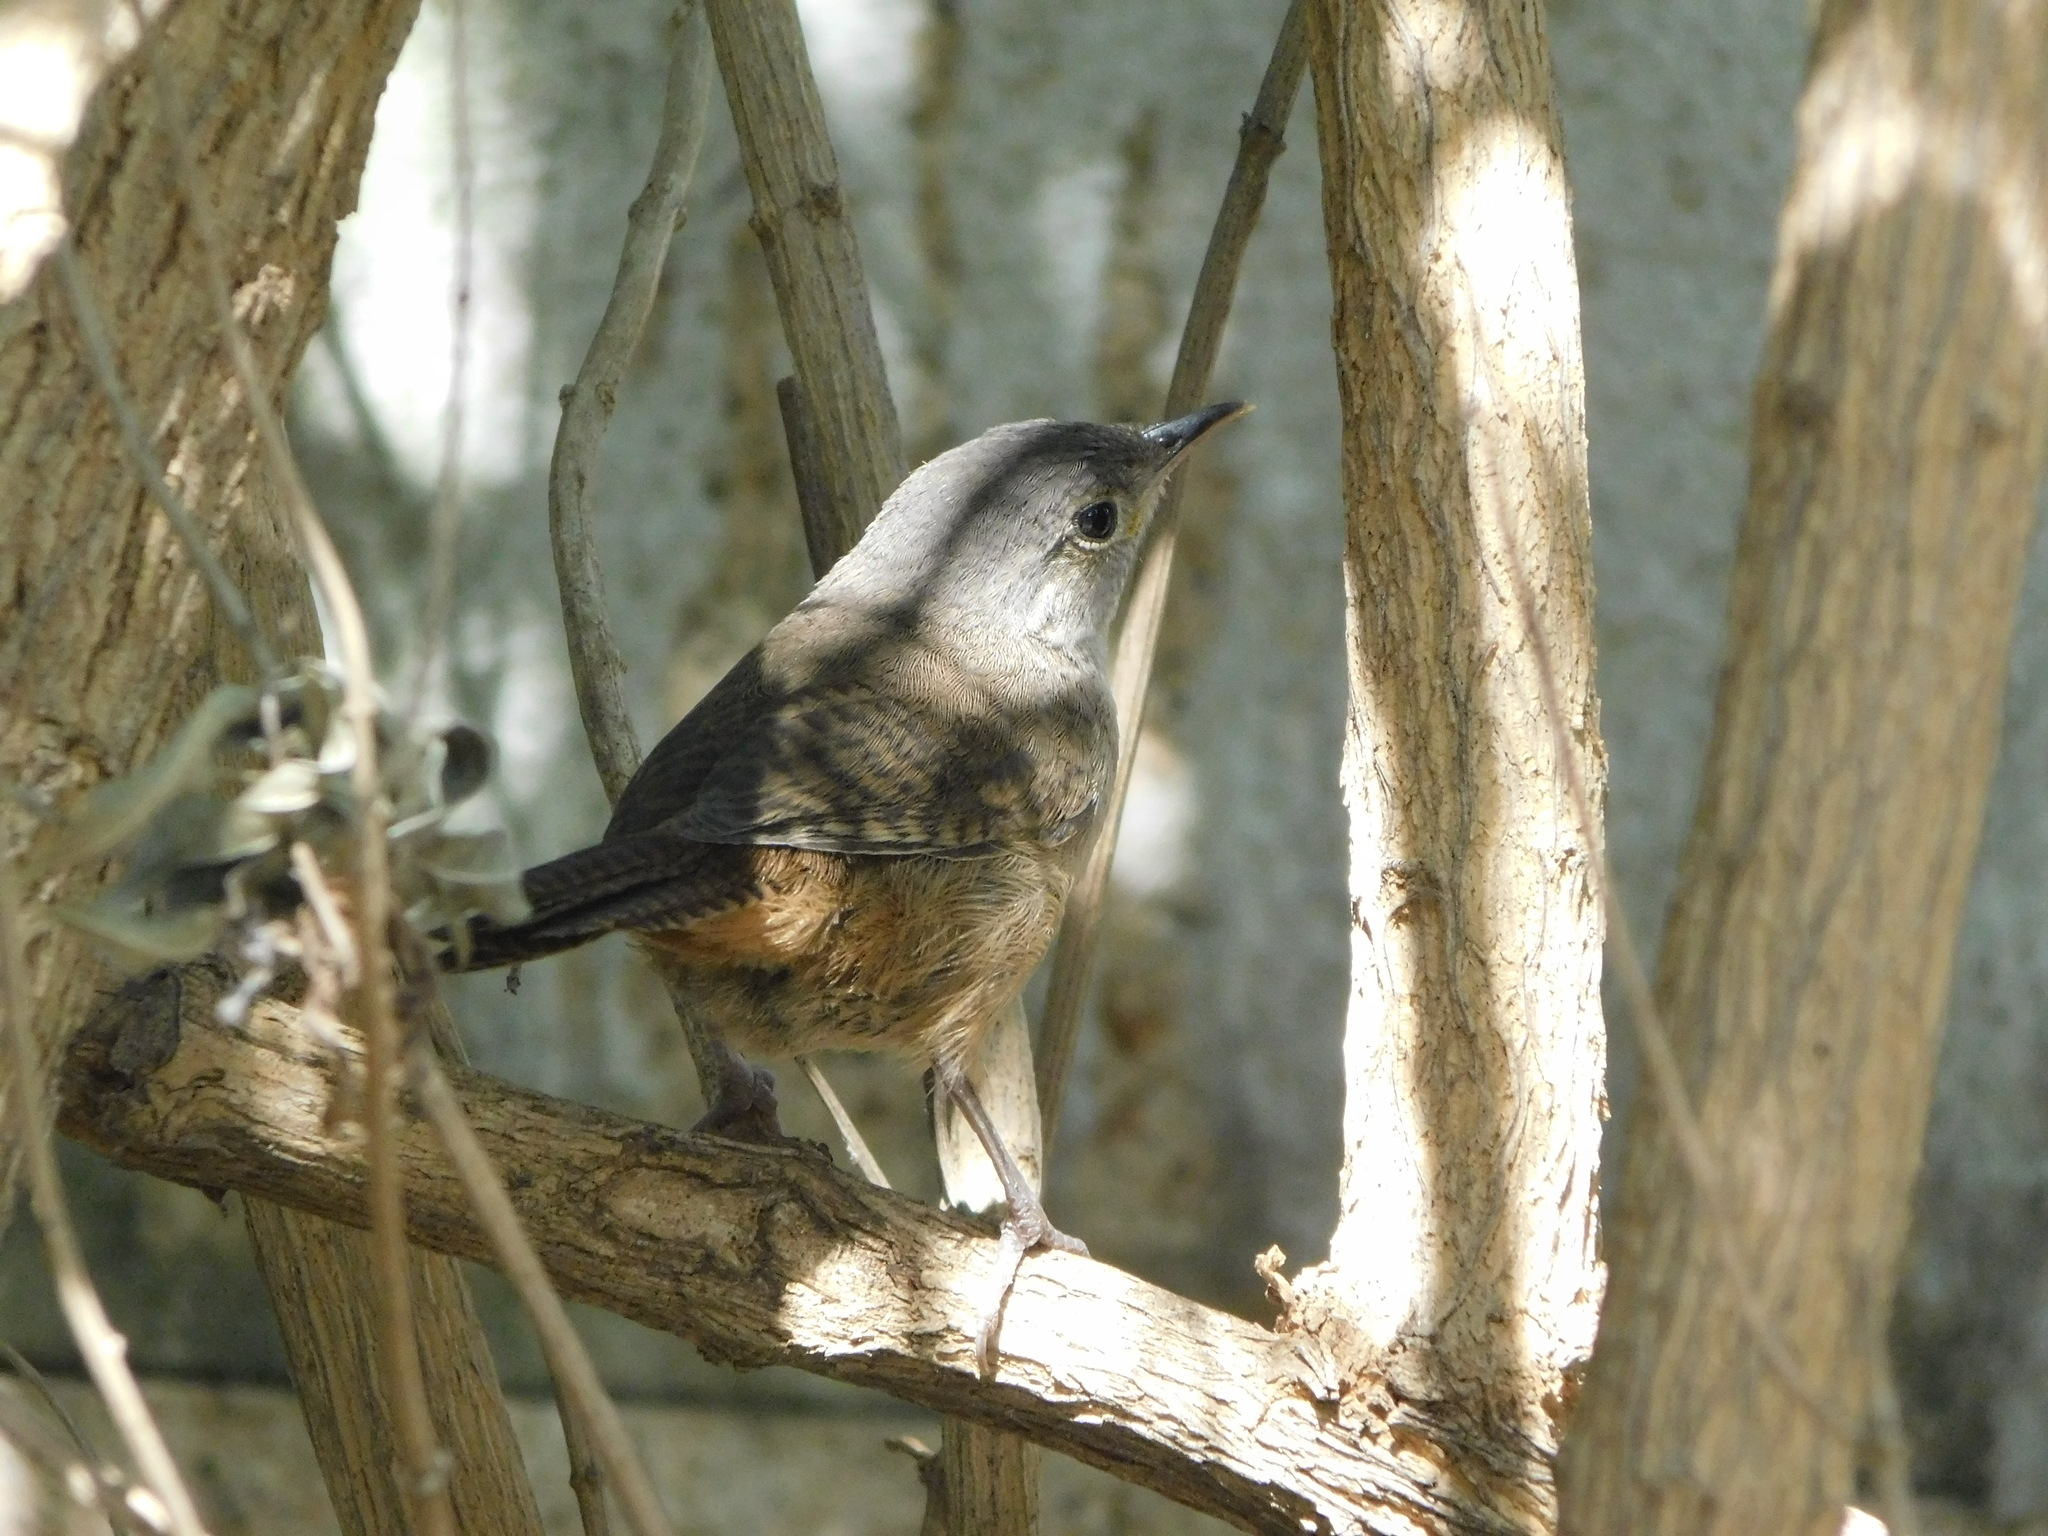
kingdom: Animalia
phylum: Chordata
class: Aves
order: Passeriformes
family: Troglodytidae
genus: Troglodytes
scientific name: Troglodytes aedon
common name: House wren
